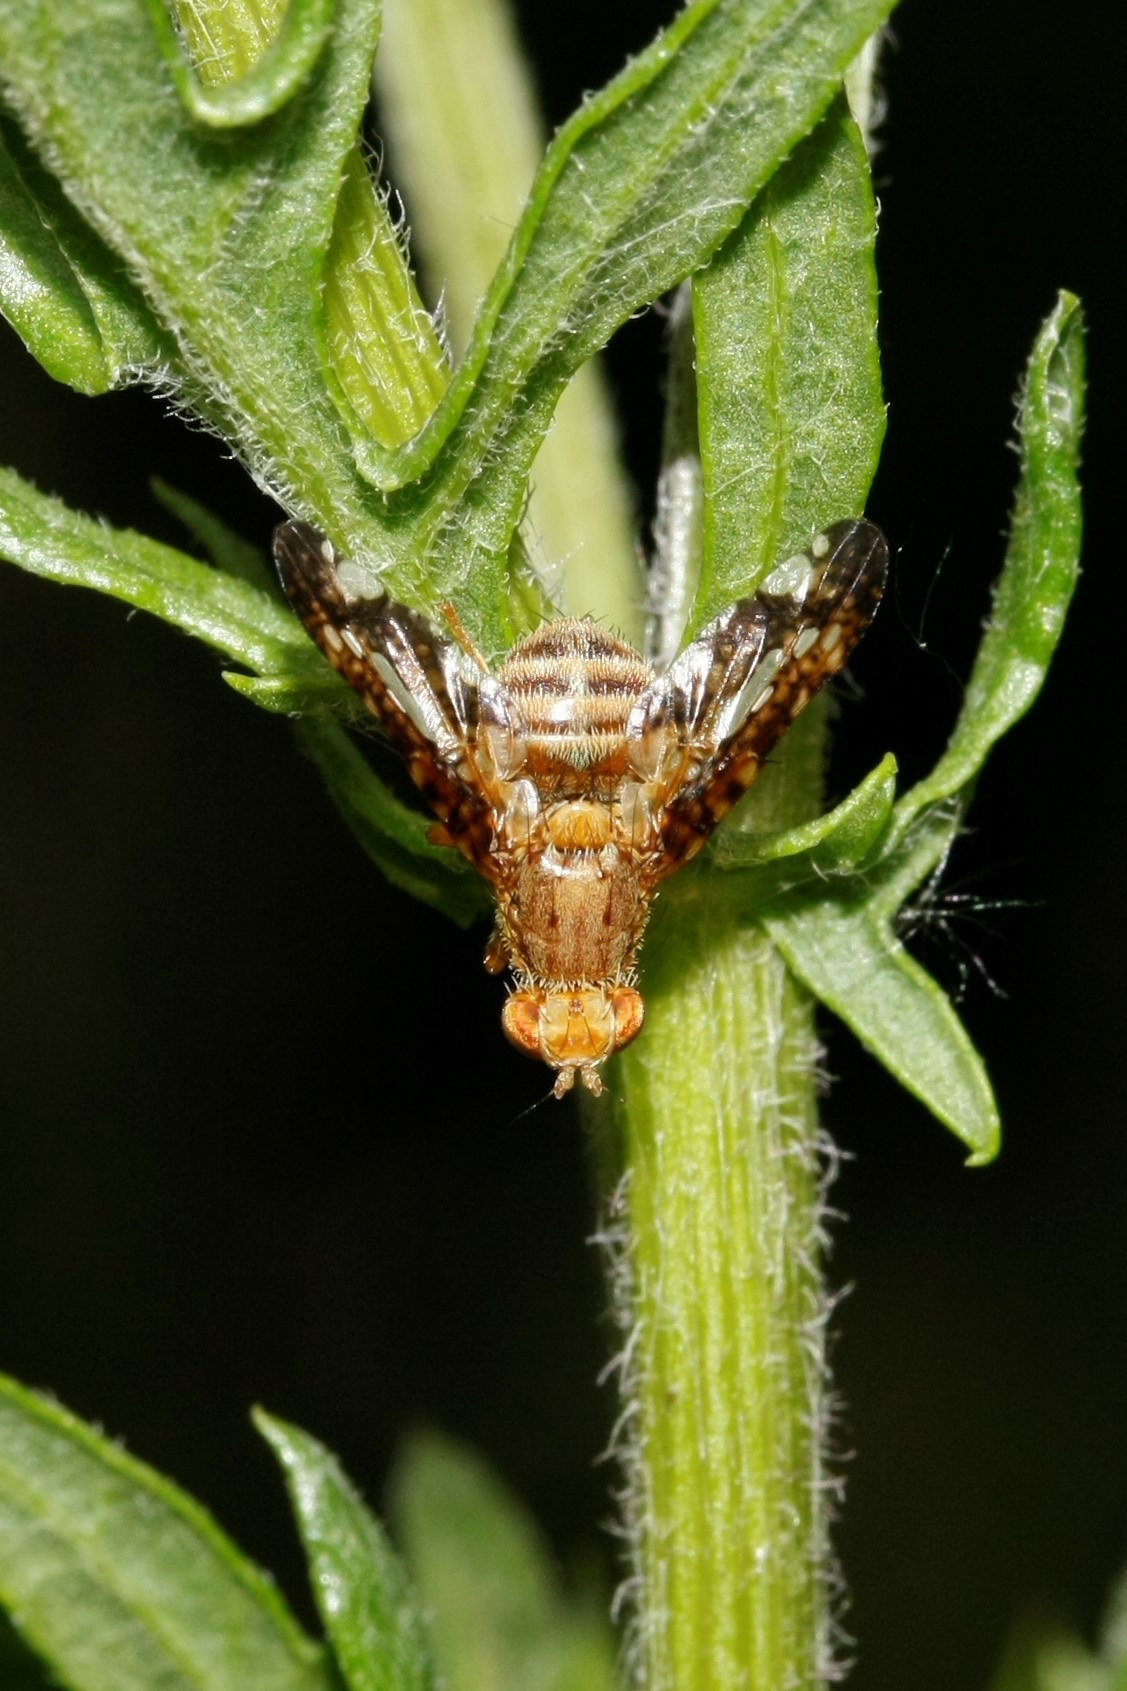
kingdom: Animalia
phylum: Arthropoda
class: Insecta
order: Diptera
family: Tephritidae
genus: Merzomyia
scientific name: Merzomyia westermanni
